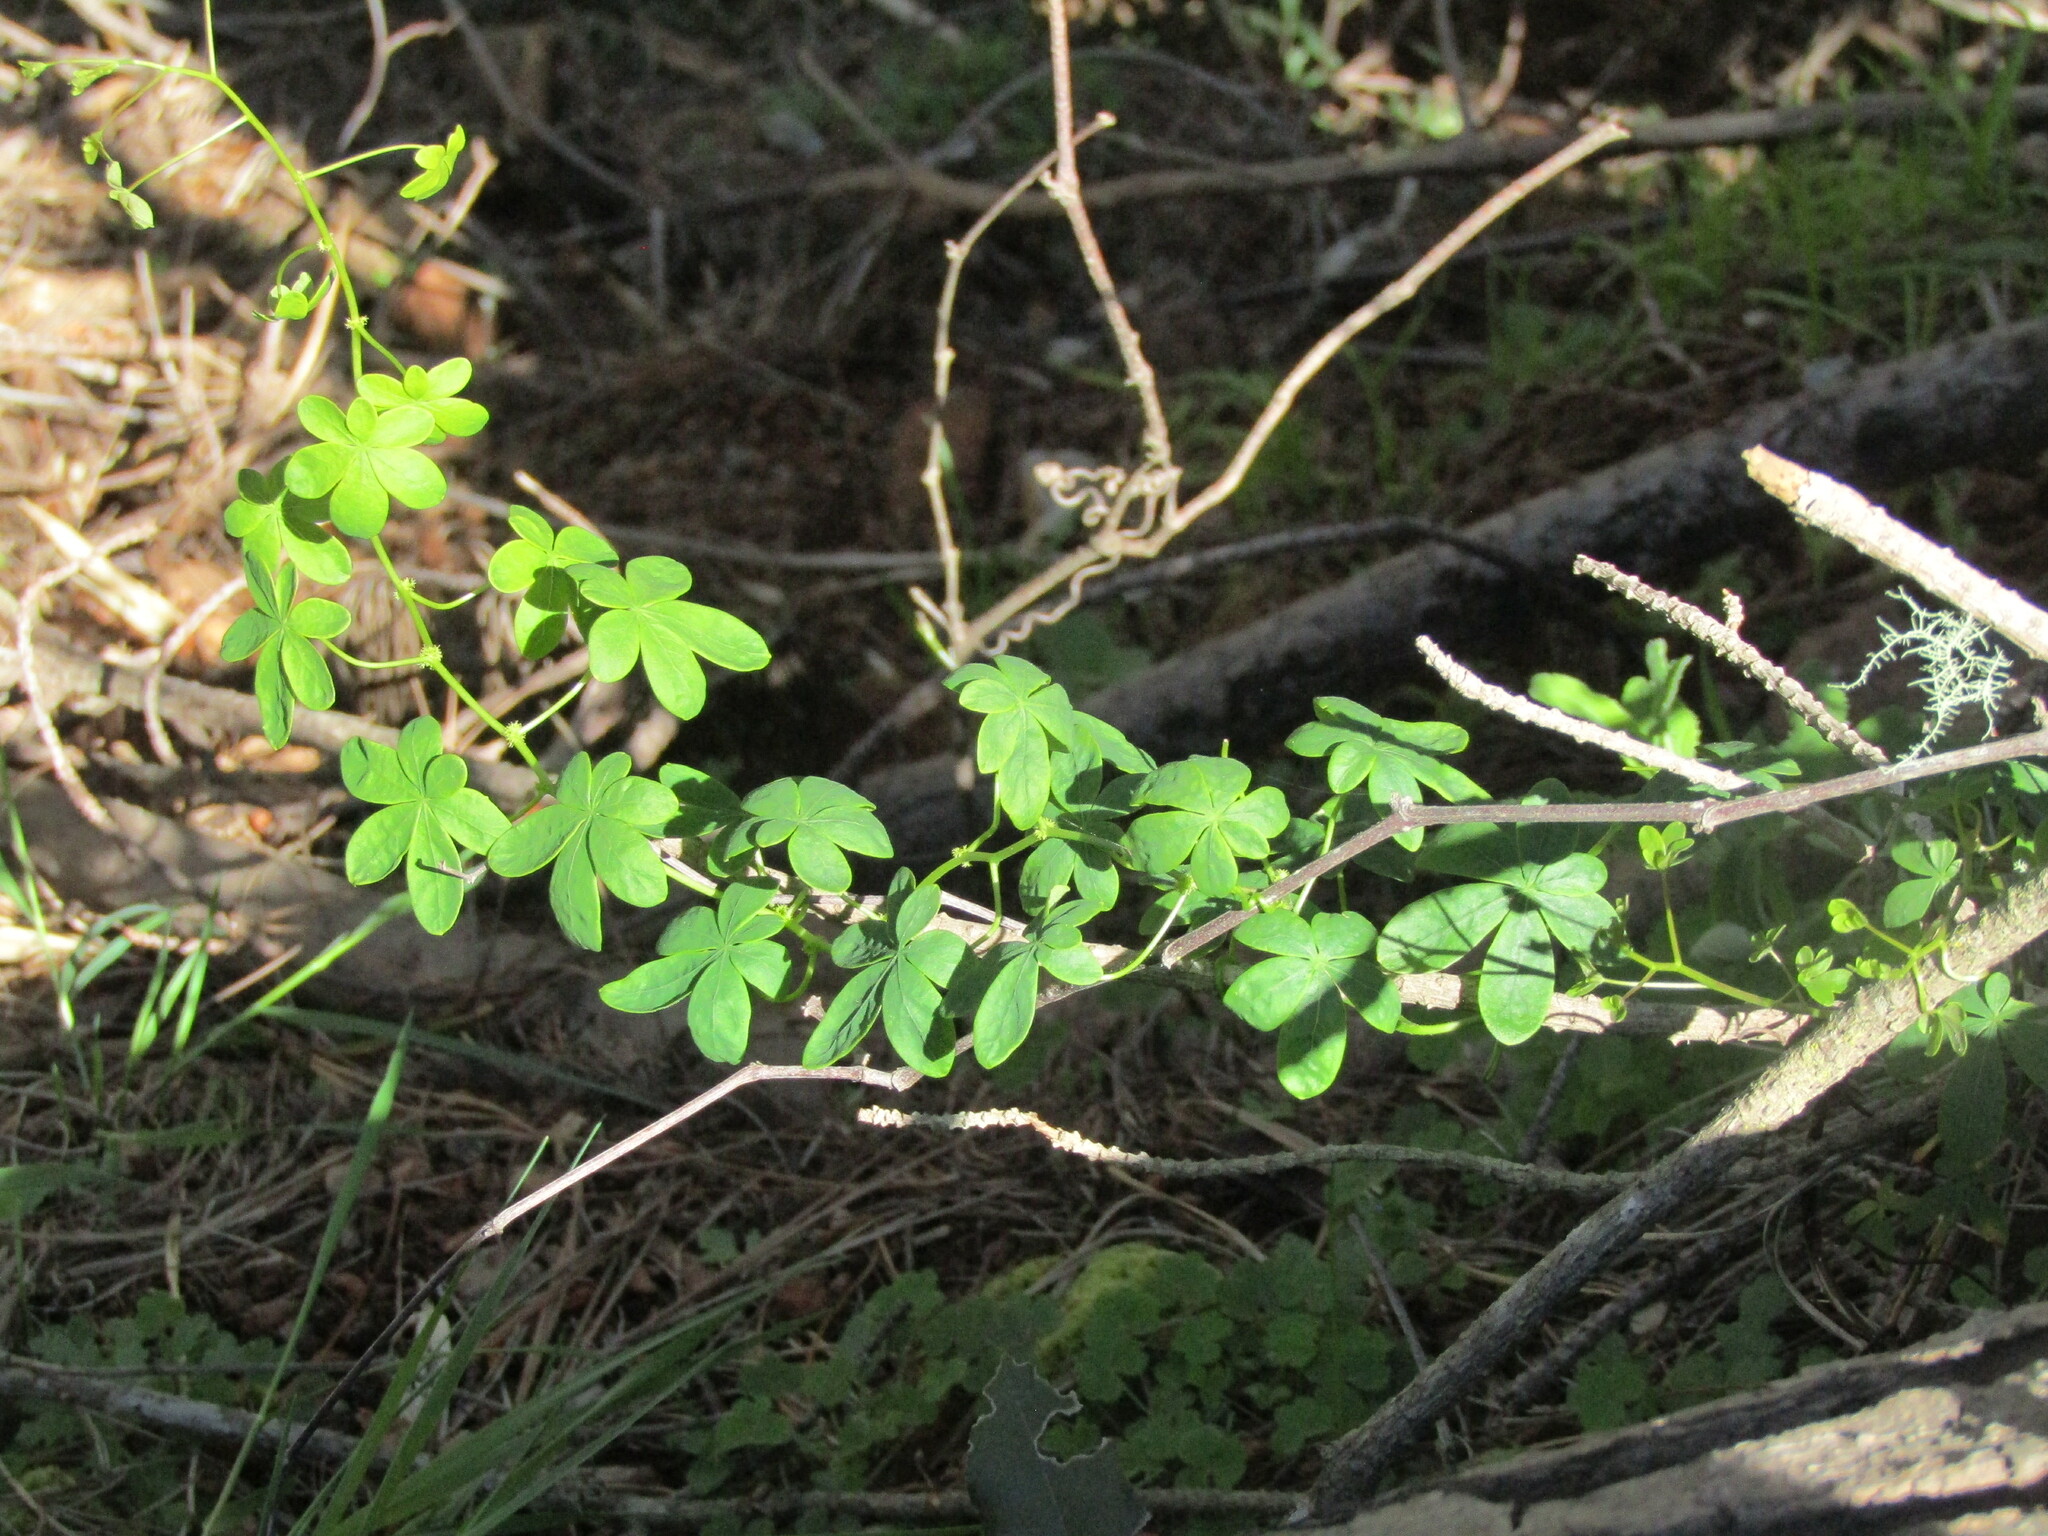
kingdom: Plantae
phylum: Tracheophyta
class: Magnoliopsida
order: Brassicales
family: Tropaeolaceae
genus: Tropaeolum
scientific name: Tropaeolum ciliatum
